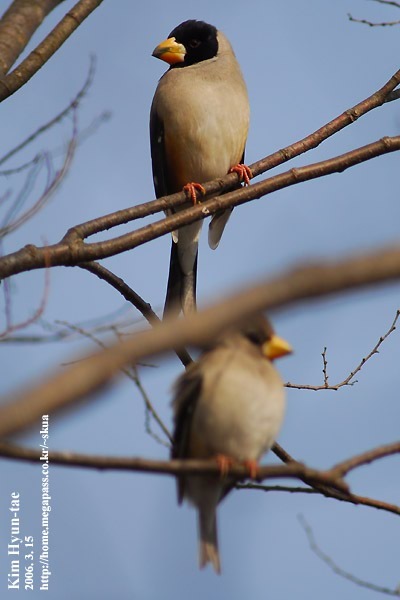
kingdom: Animalia
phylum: Chordata
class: Aves
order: Passeriformes
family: Fringillidae
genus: Eophona
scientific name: Eophona migratoria
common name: Yellow-billed grosbeak
